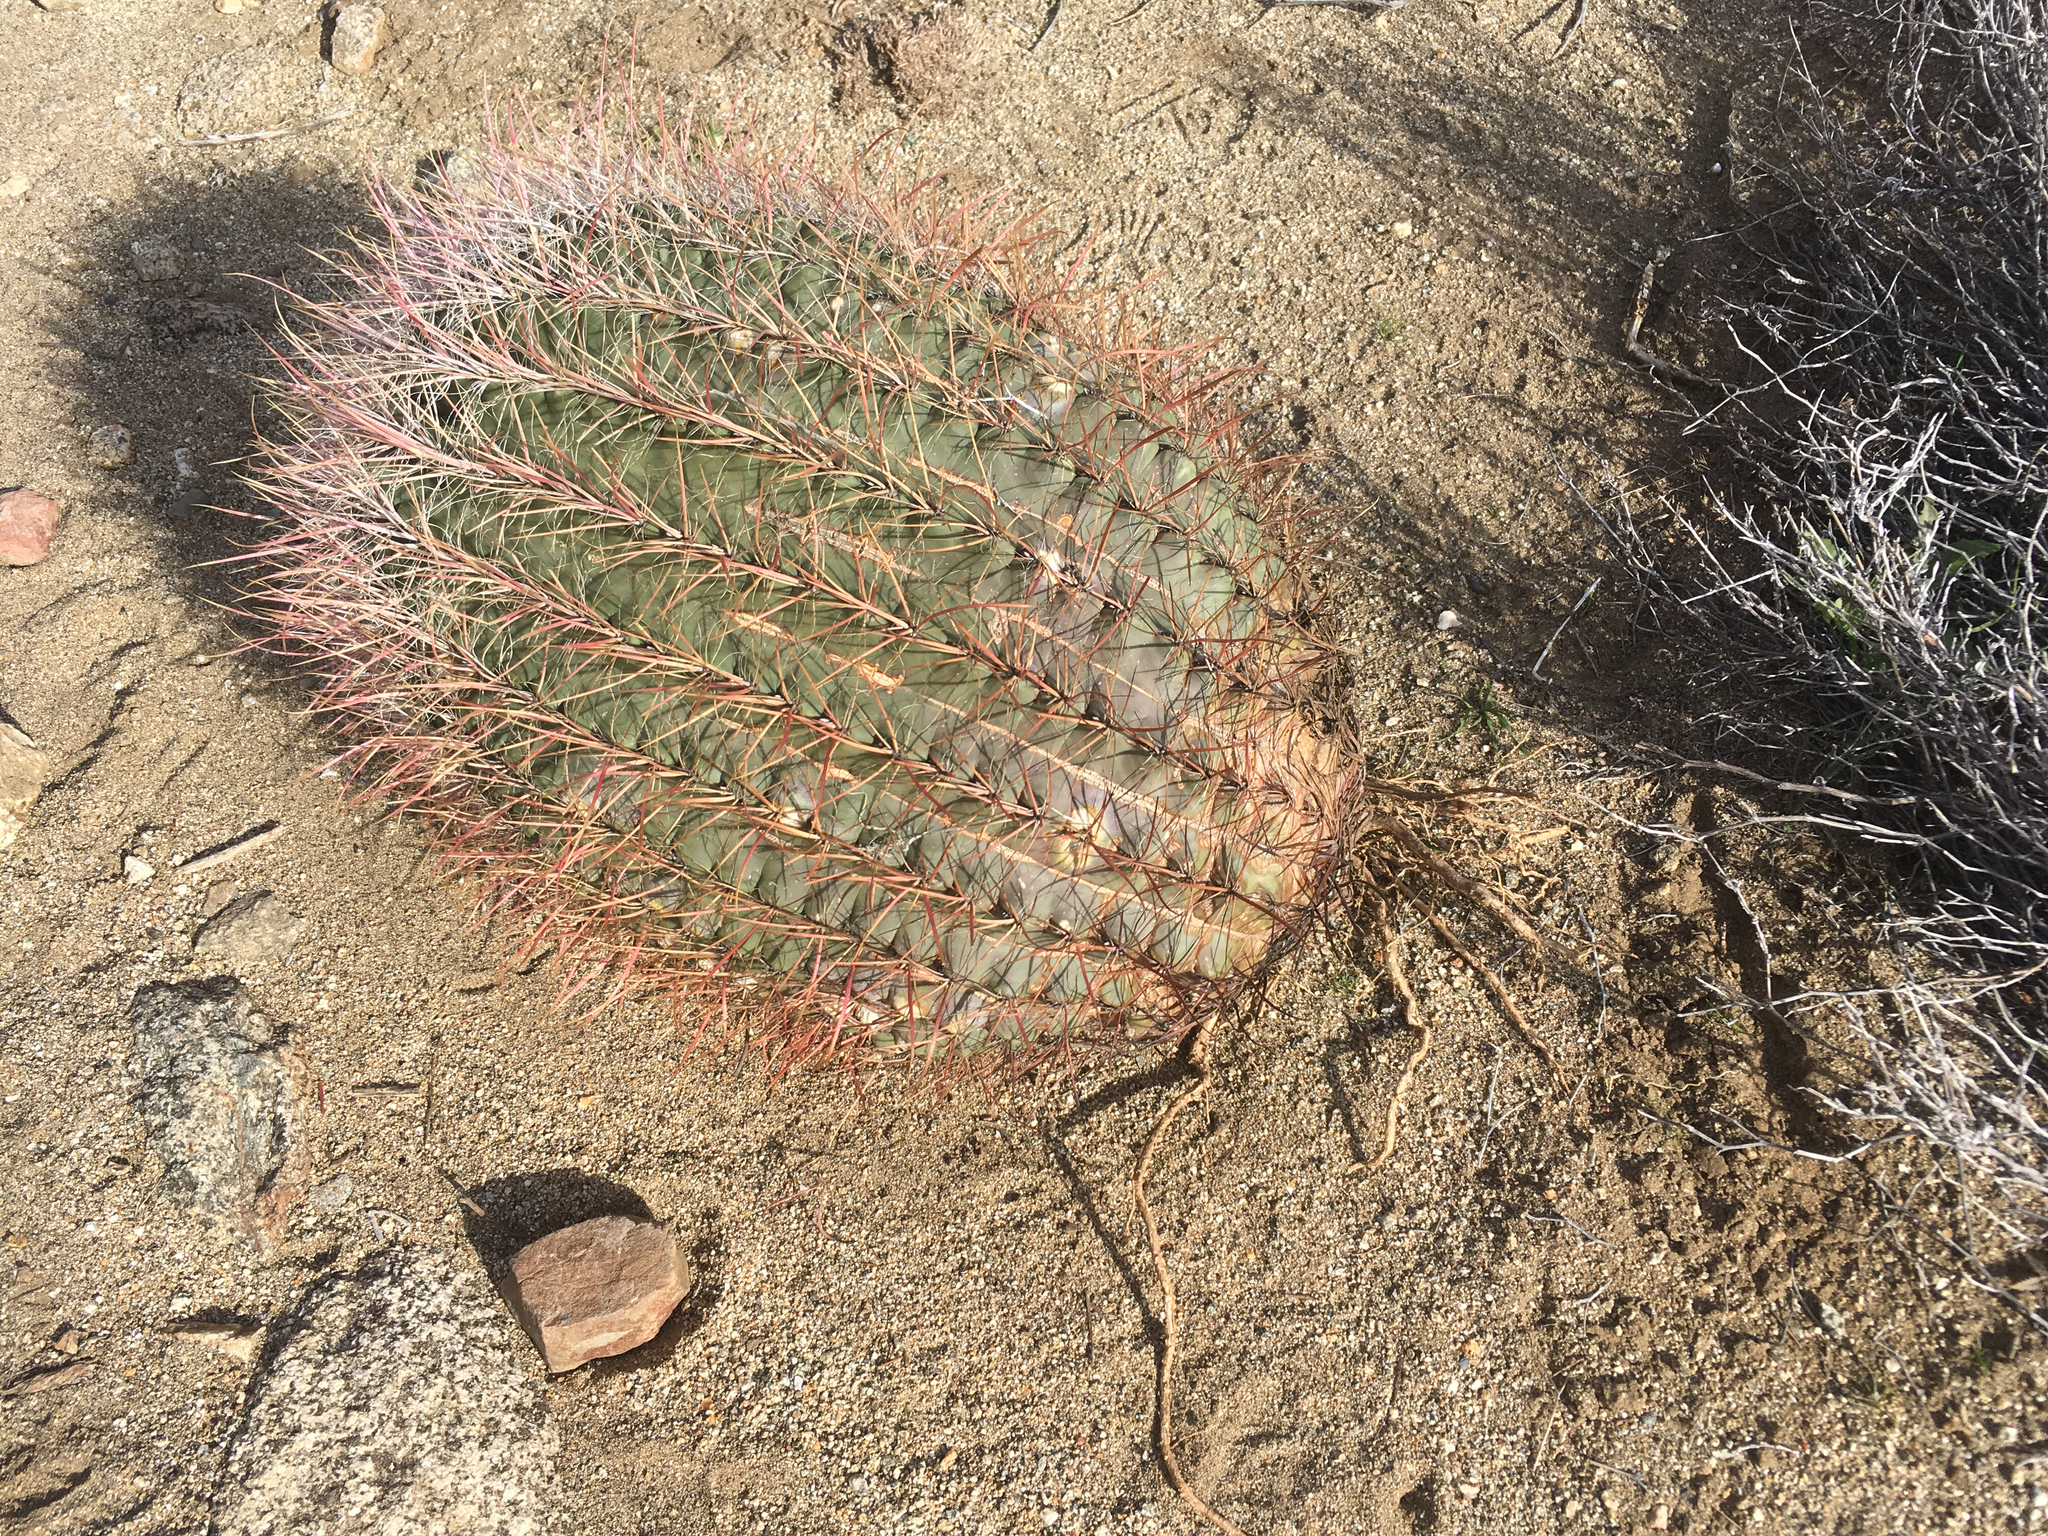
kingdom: Plantae
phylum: Tracheophyta
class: Magnoliopsida
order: Caryophyllales
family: Cactaceae
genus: Ferocactus
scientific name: Ferocactus cylindraceus
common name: California barrel cactus
